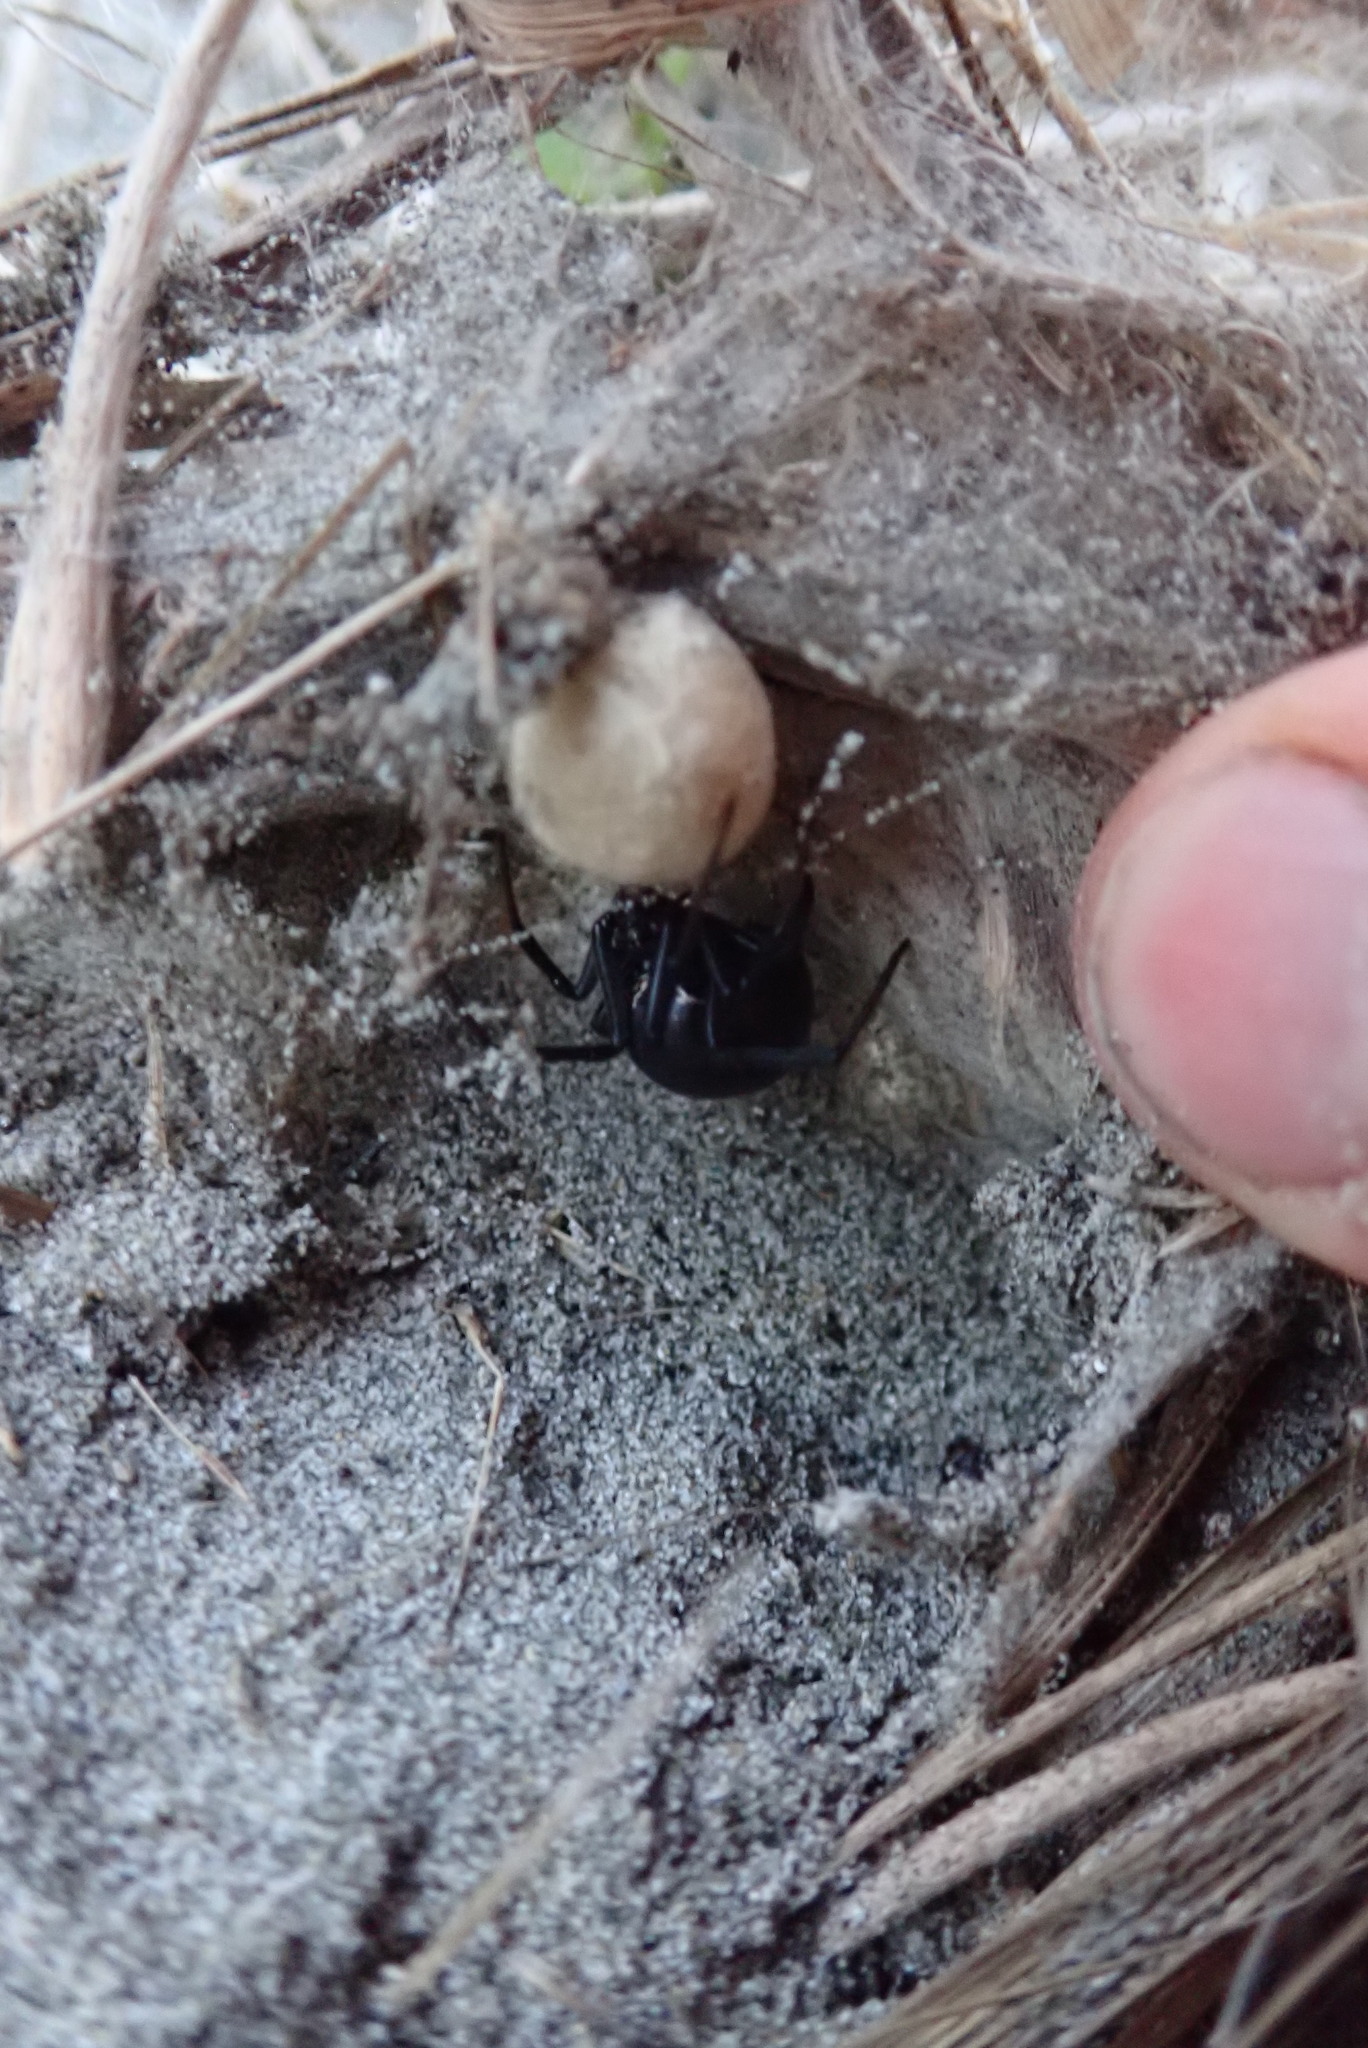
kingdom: Animalia
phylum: Arthropoda
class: Arachnida
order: Araneae
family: Theridiidae
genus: Latrodectus
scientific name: Latrodectus katipo
